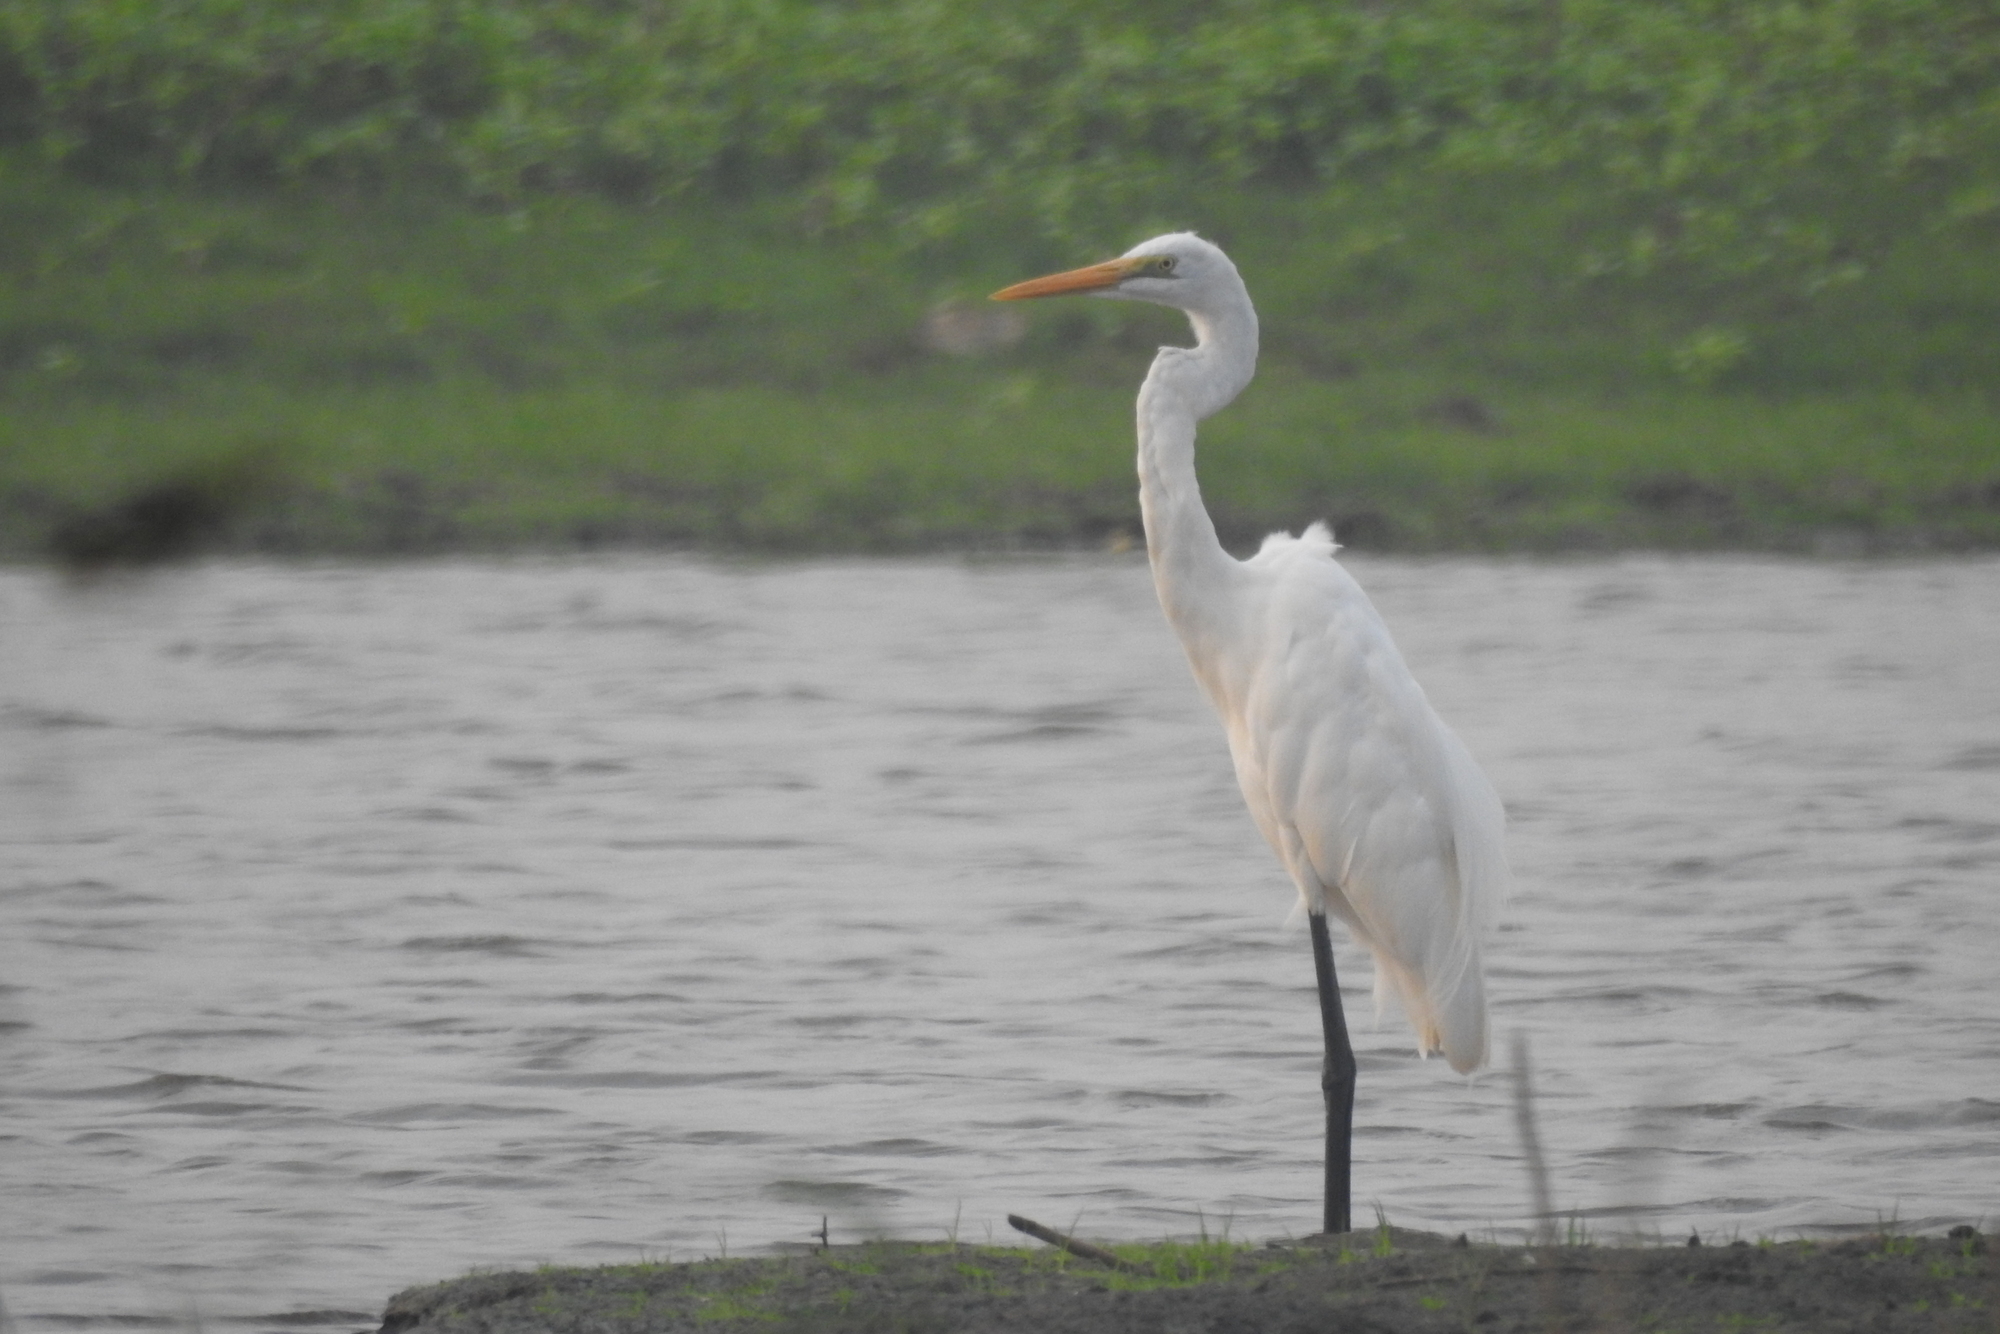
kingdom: Animalia
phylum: Chordata
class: Aves
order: Pelecaniformes
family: Ardeidae
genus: Ardea
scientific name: Ardea alba
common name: Great egret
